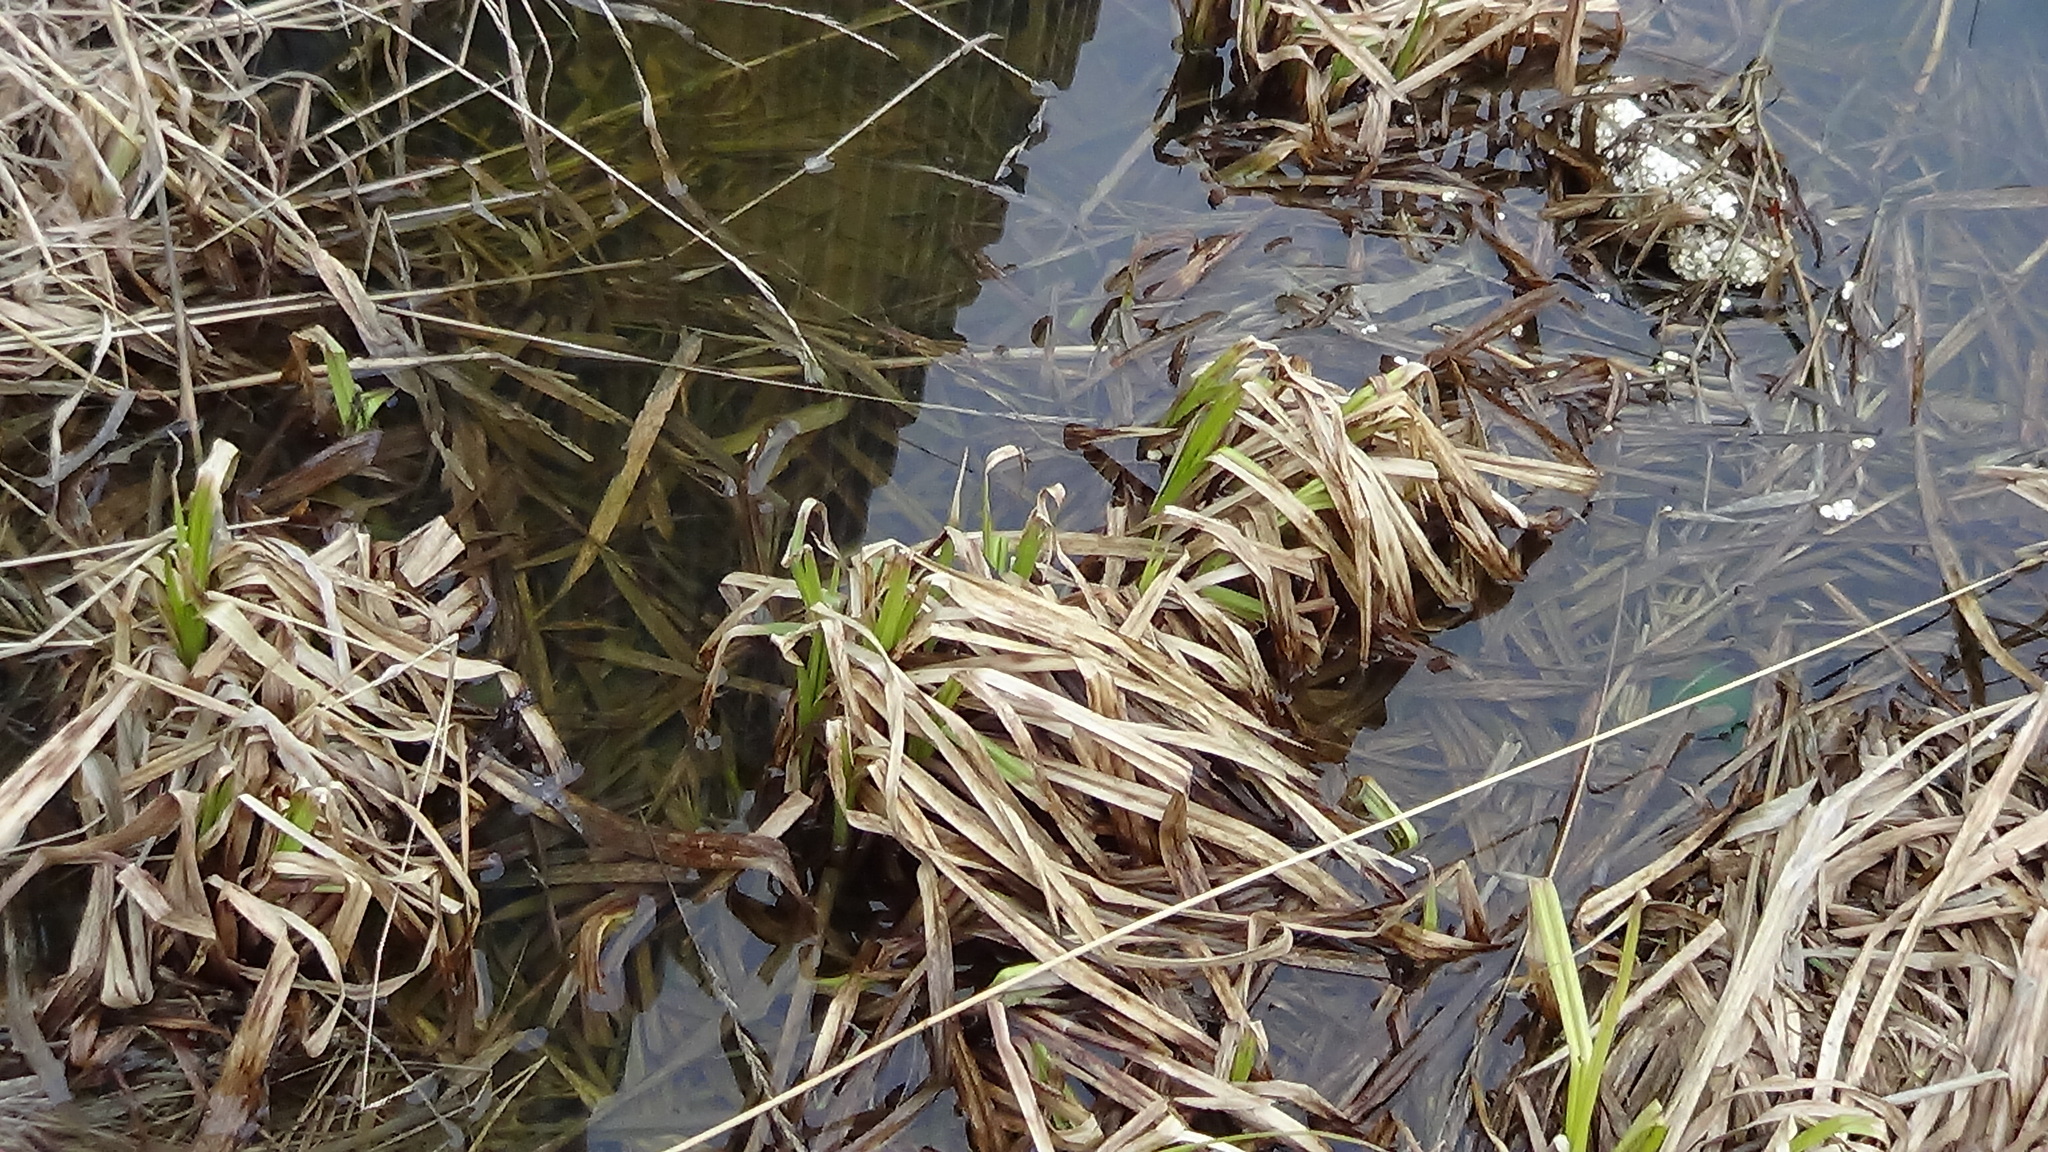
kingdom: Plantae
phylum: Tracheophyta
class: Liliopsida
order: Poales
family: Cyperaceae
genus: Scirpus
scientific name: Scirpus sylvaticus
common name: Wood club-rush
